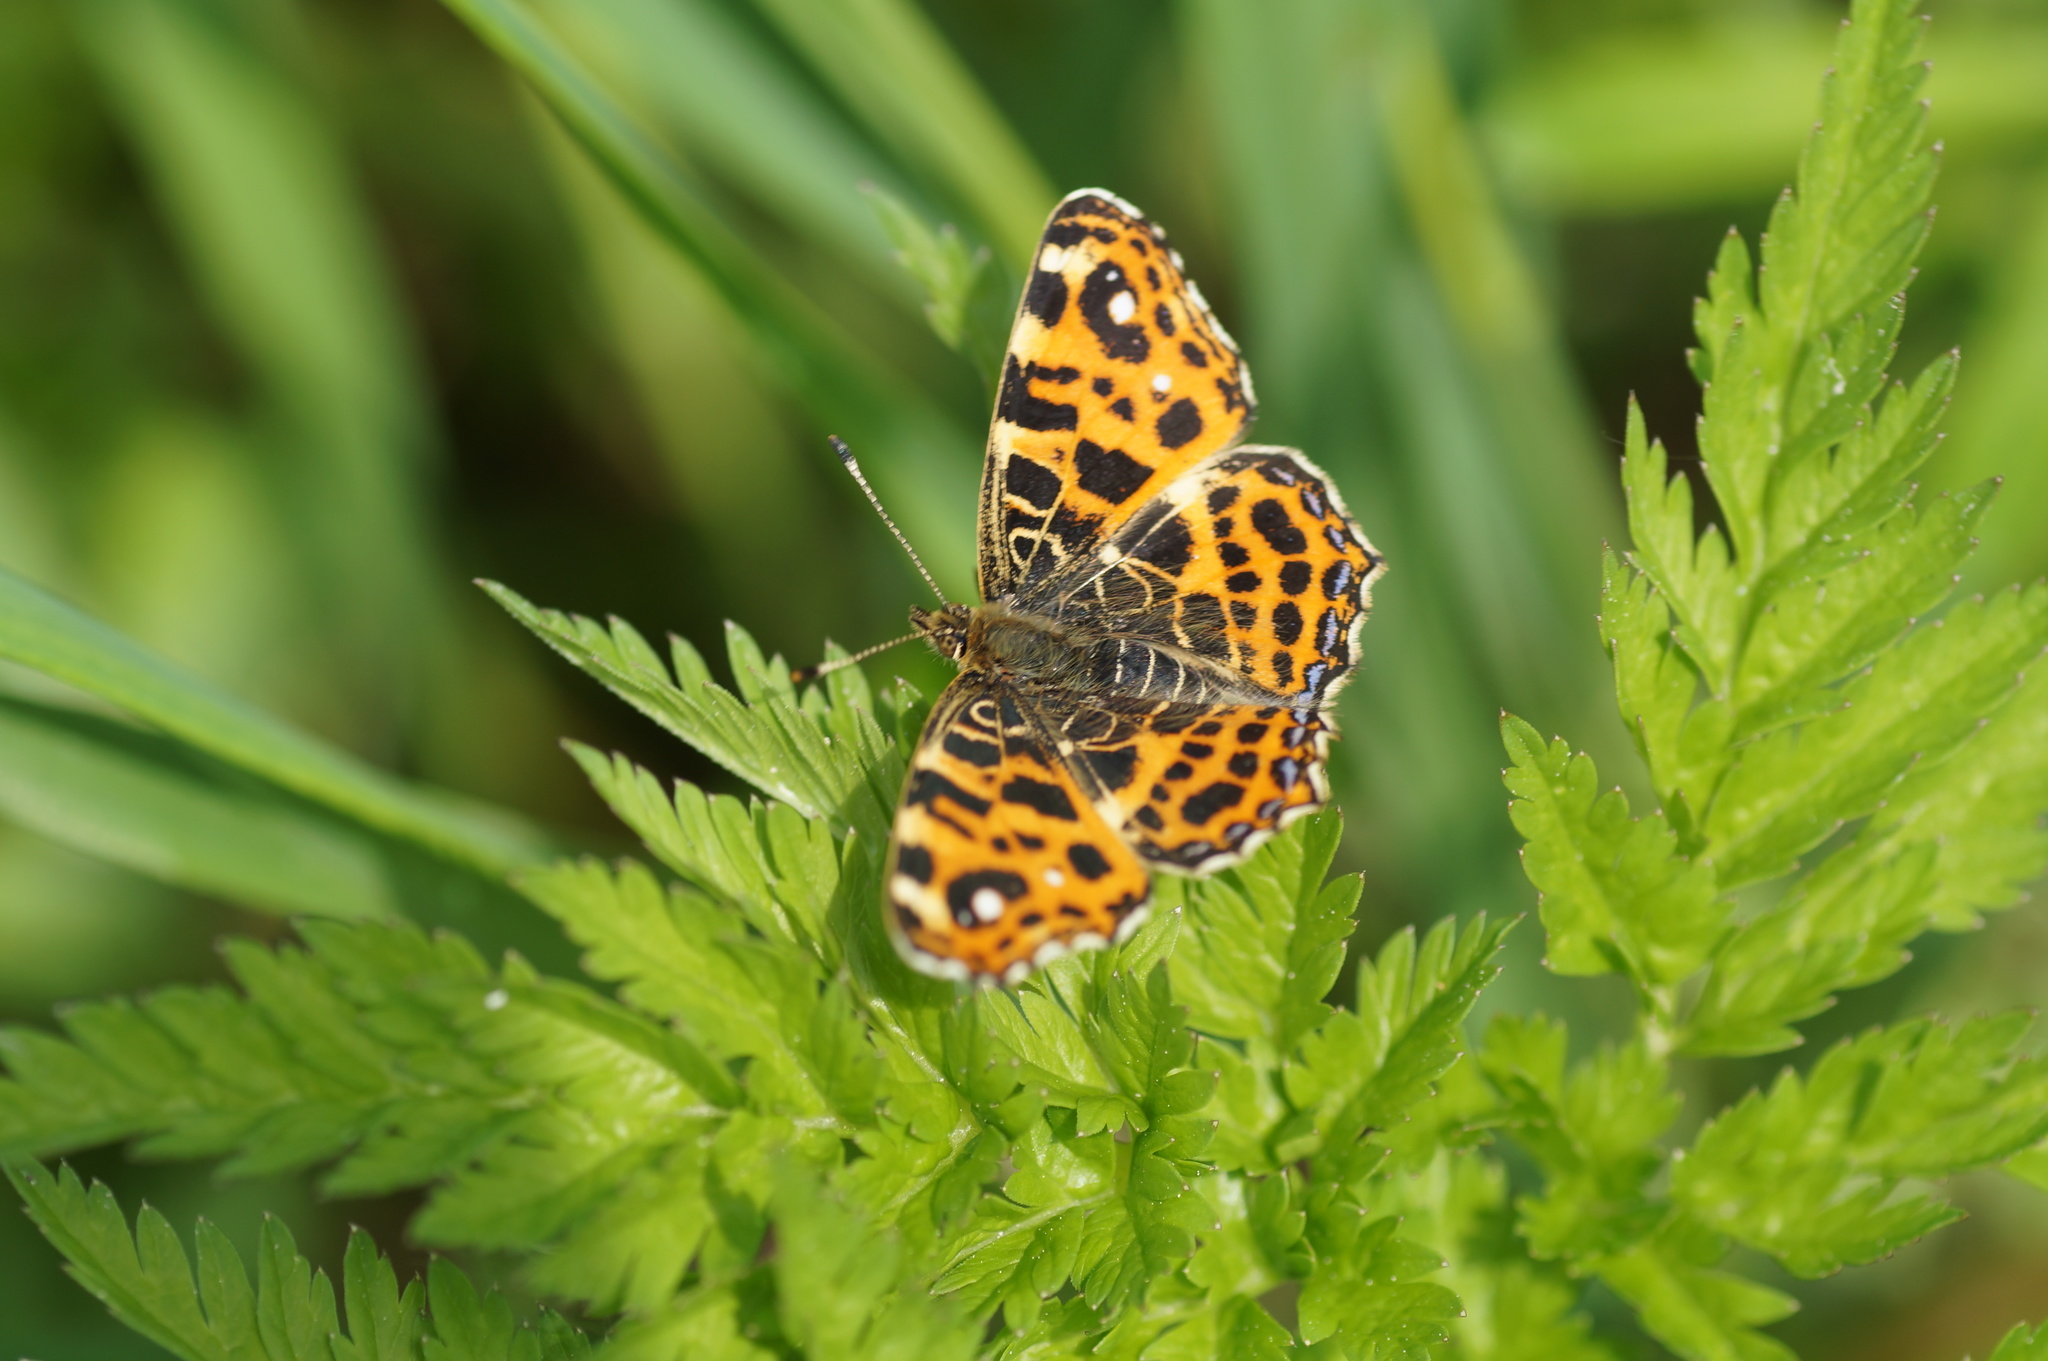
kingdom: Animalia
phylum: Arthropoda
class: Insecta
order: Lepidoptera
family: Nymphalidae
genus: Araschnia
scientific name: Araschnia levana
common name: Map butterfly
